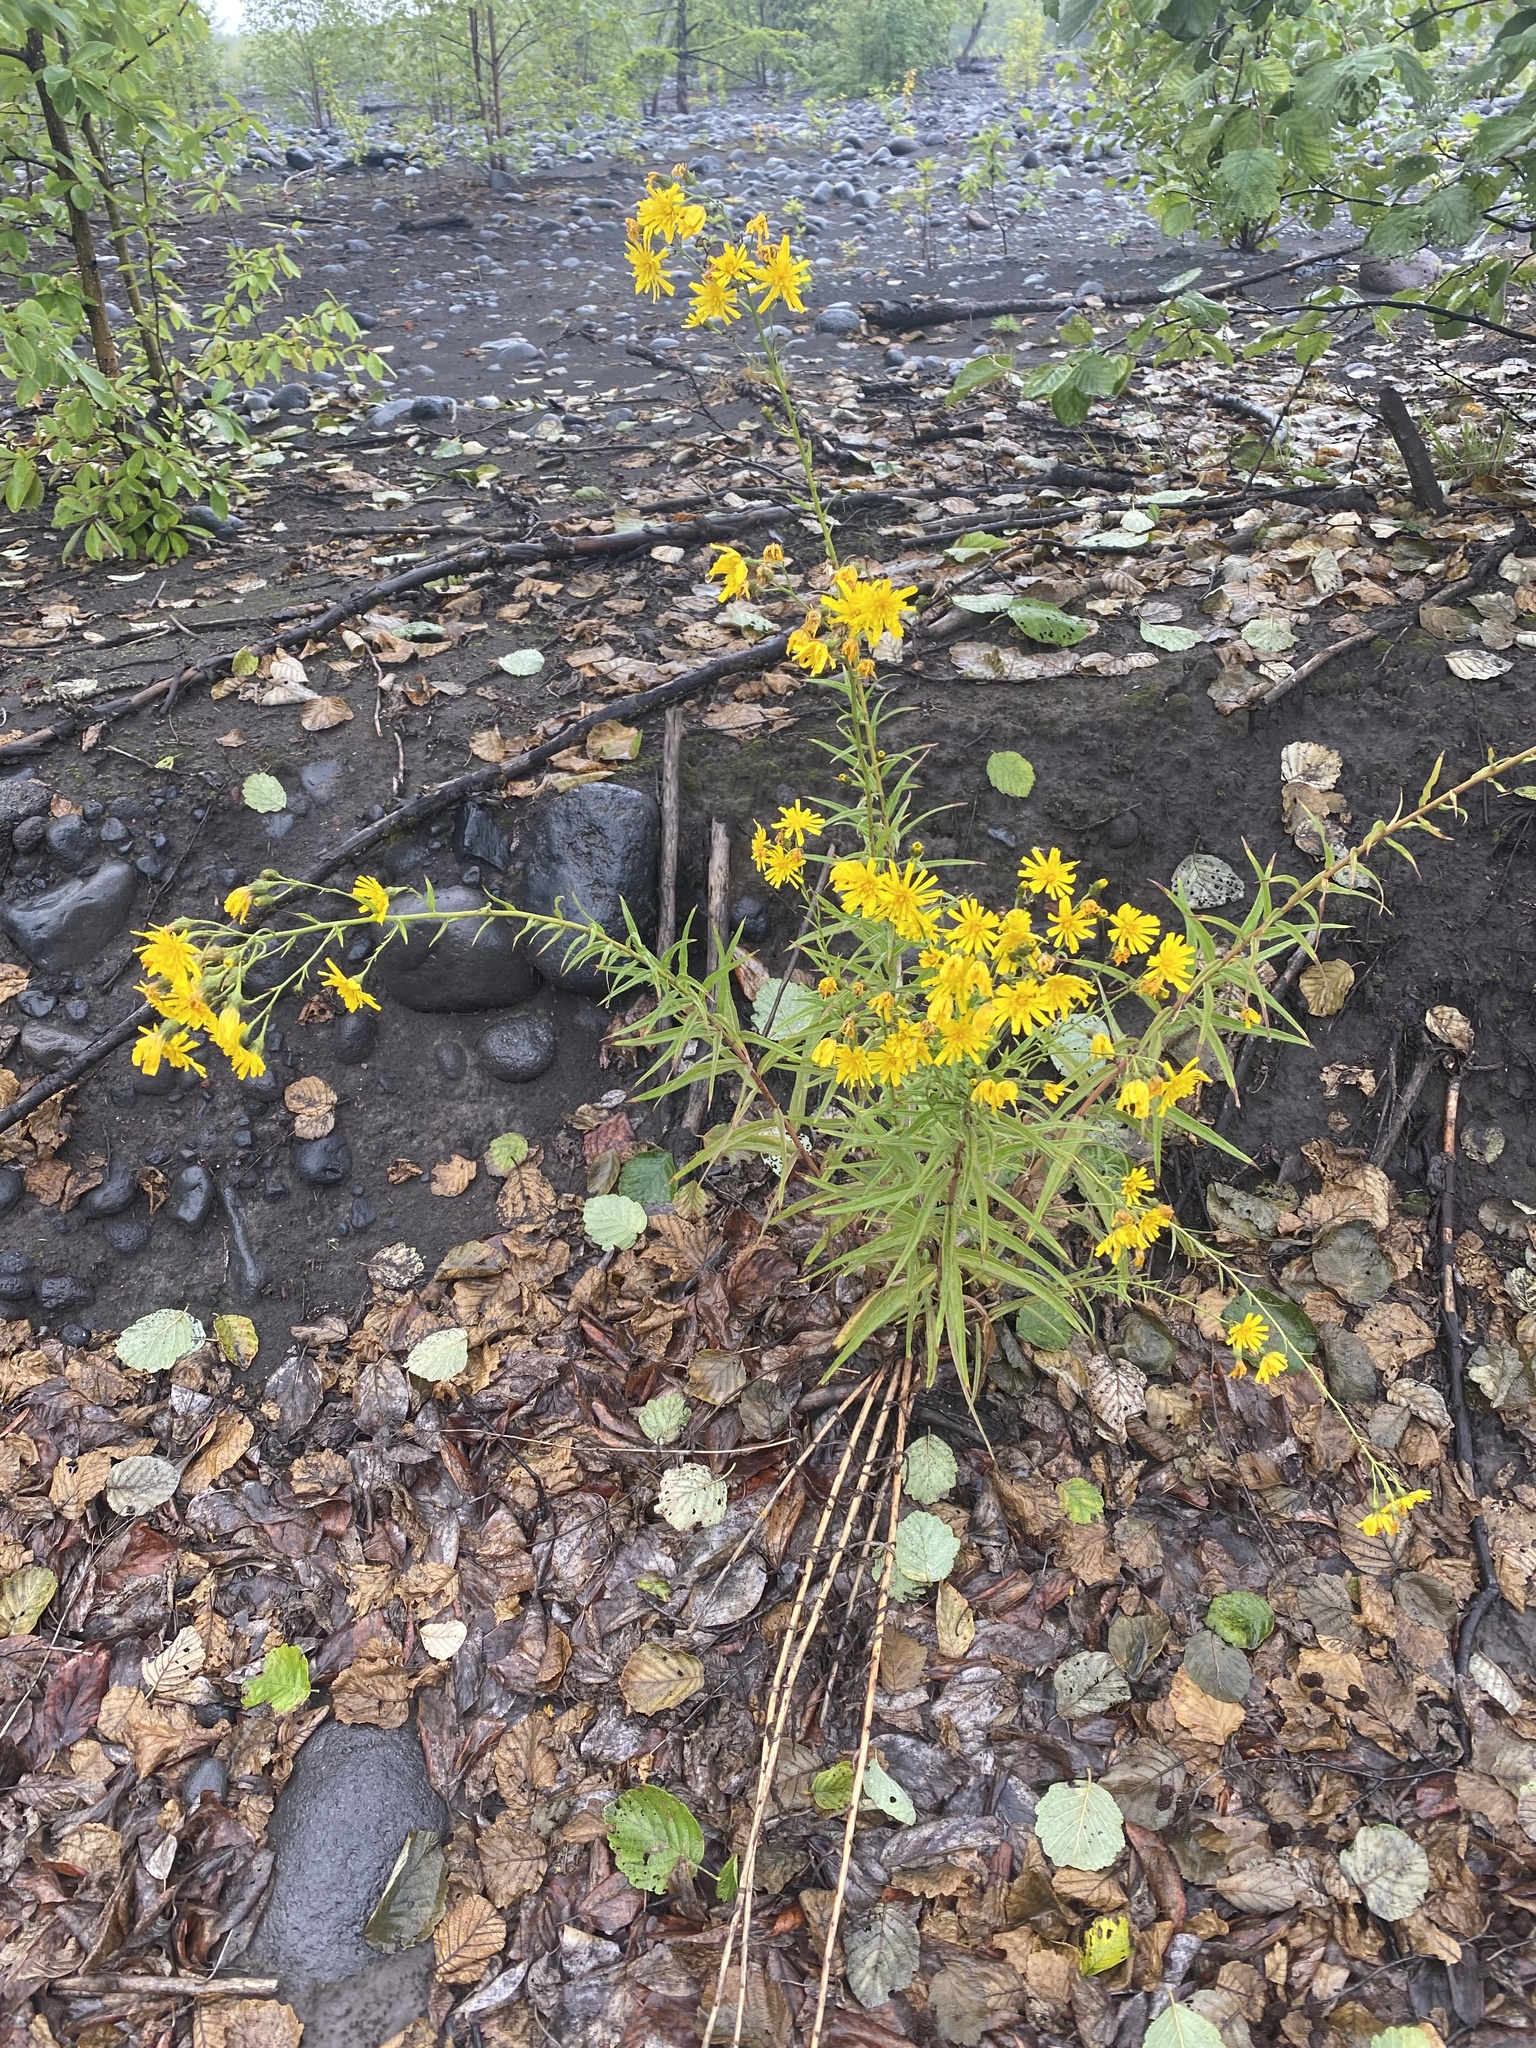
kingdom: Plantae
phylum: Tracheophyta
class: Magnoliopsida
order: Asterales
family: Asteraceae
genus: Hieracium
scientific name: Hieracium umbellatum
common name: Northern hawkweed
